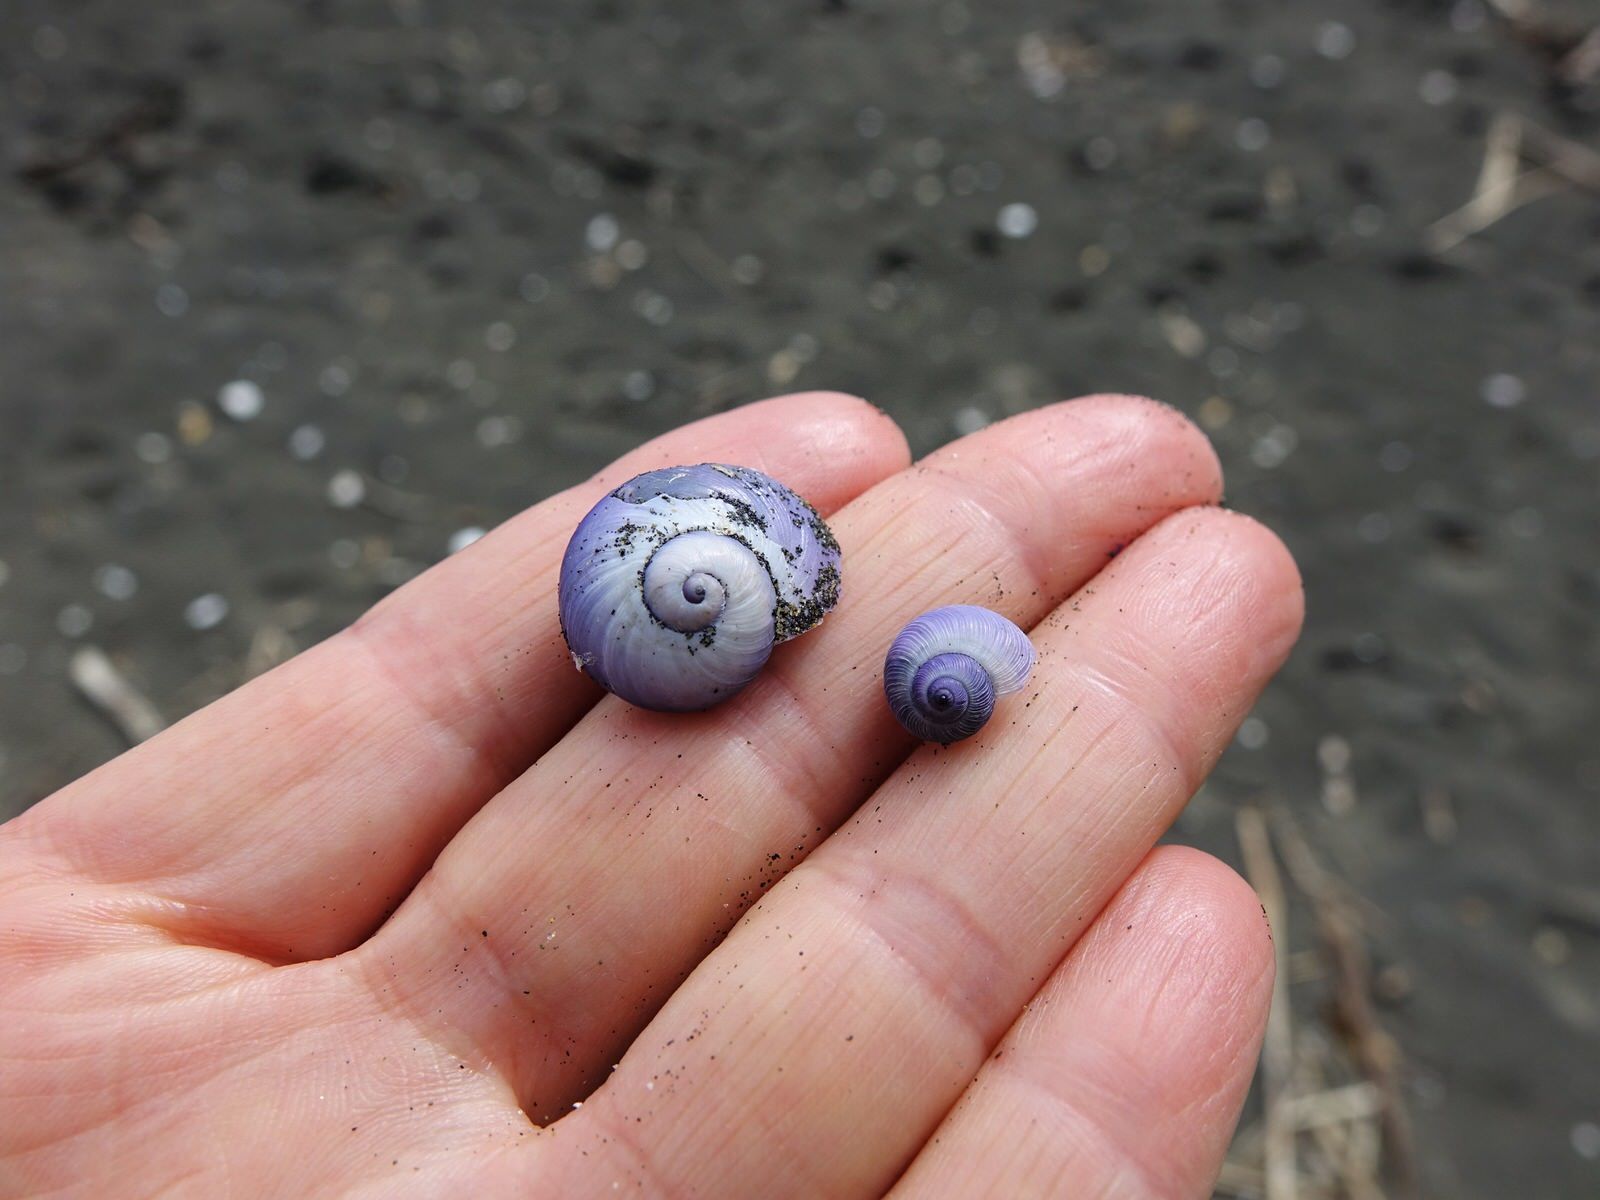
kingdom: Animalia
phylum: Mollusca
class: Gastropoda
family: Epitoniidae
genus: Janthina
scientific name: Janthina exigua
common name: Dwarf janthina
